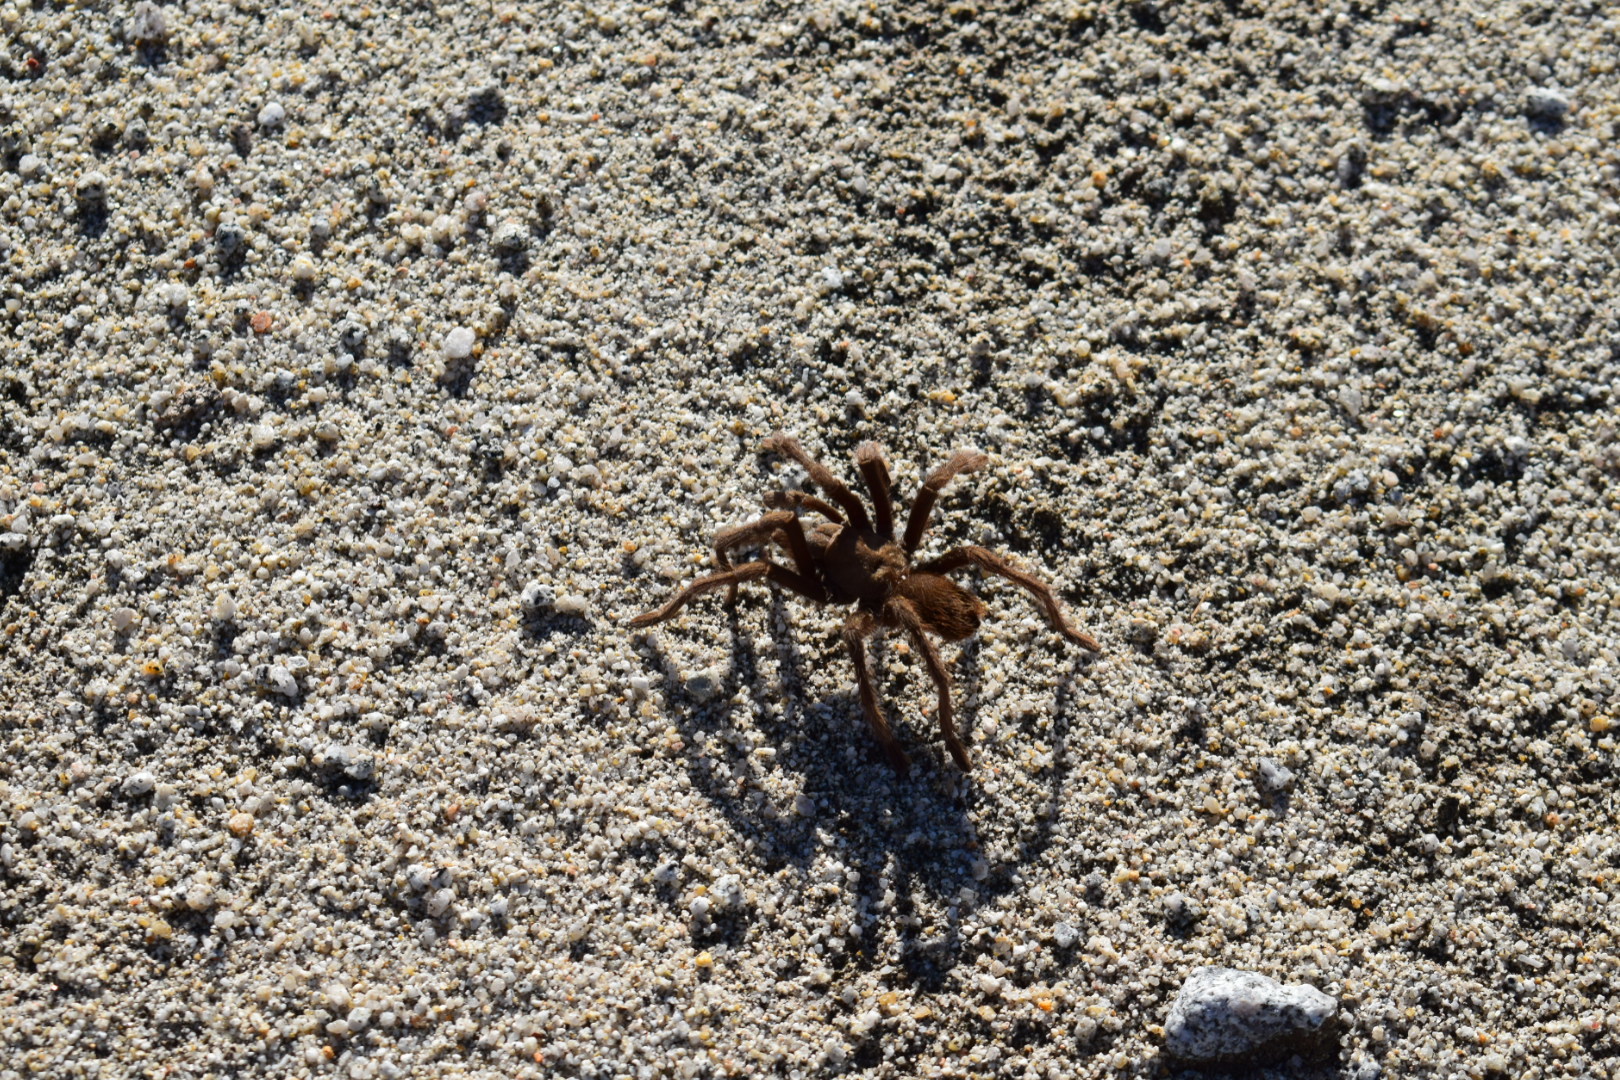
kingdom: Animalia
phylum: Arthropoda
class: Arachnida
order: Araneae
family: Theraphosidae
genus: Aphonopelma
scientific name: Aphonopelma eutylenum
